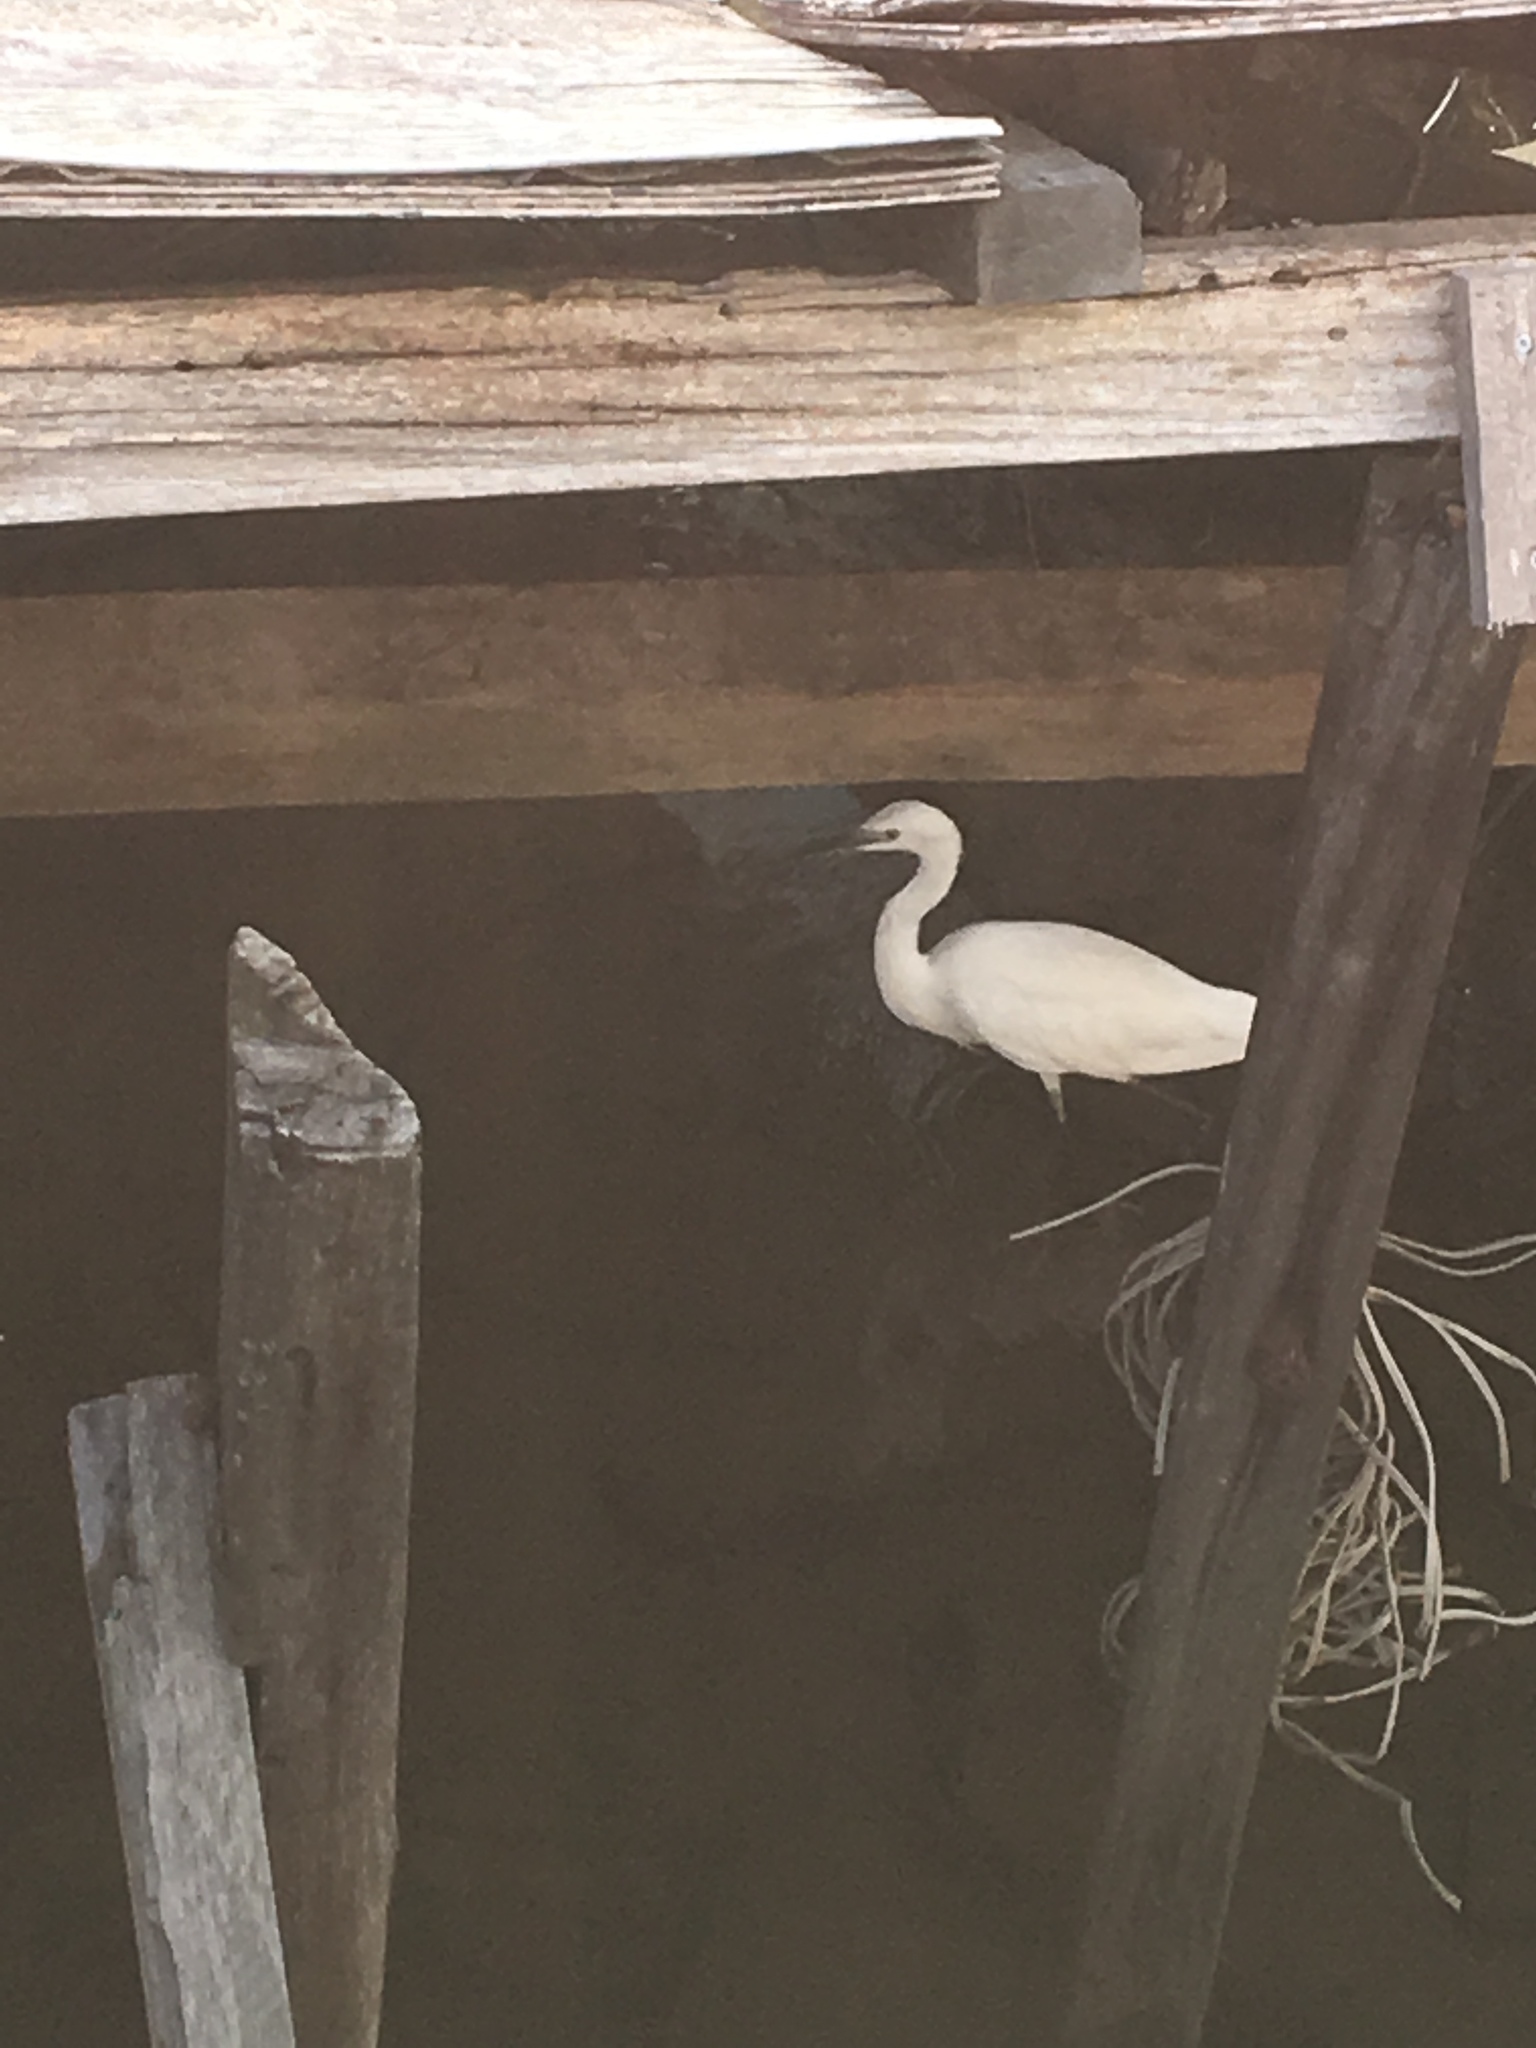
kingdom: Animalia
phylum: Chordata
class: Aves
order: Pelecaniformes
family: Ardeidae
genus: Egretta
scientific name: Egretta garzetta
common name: Little egret
